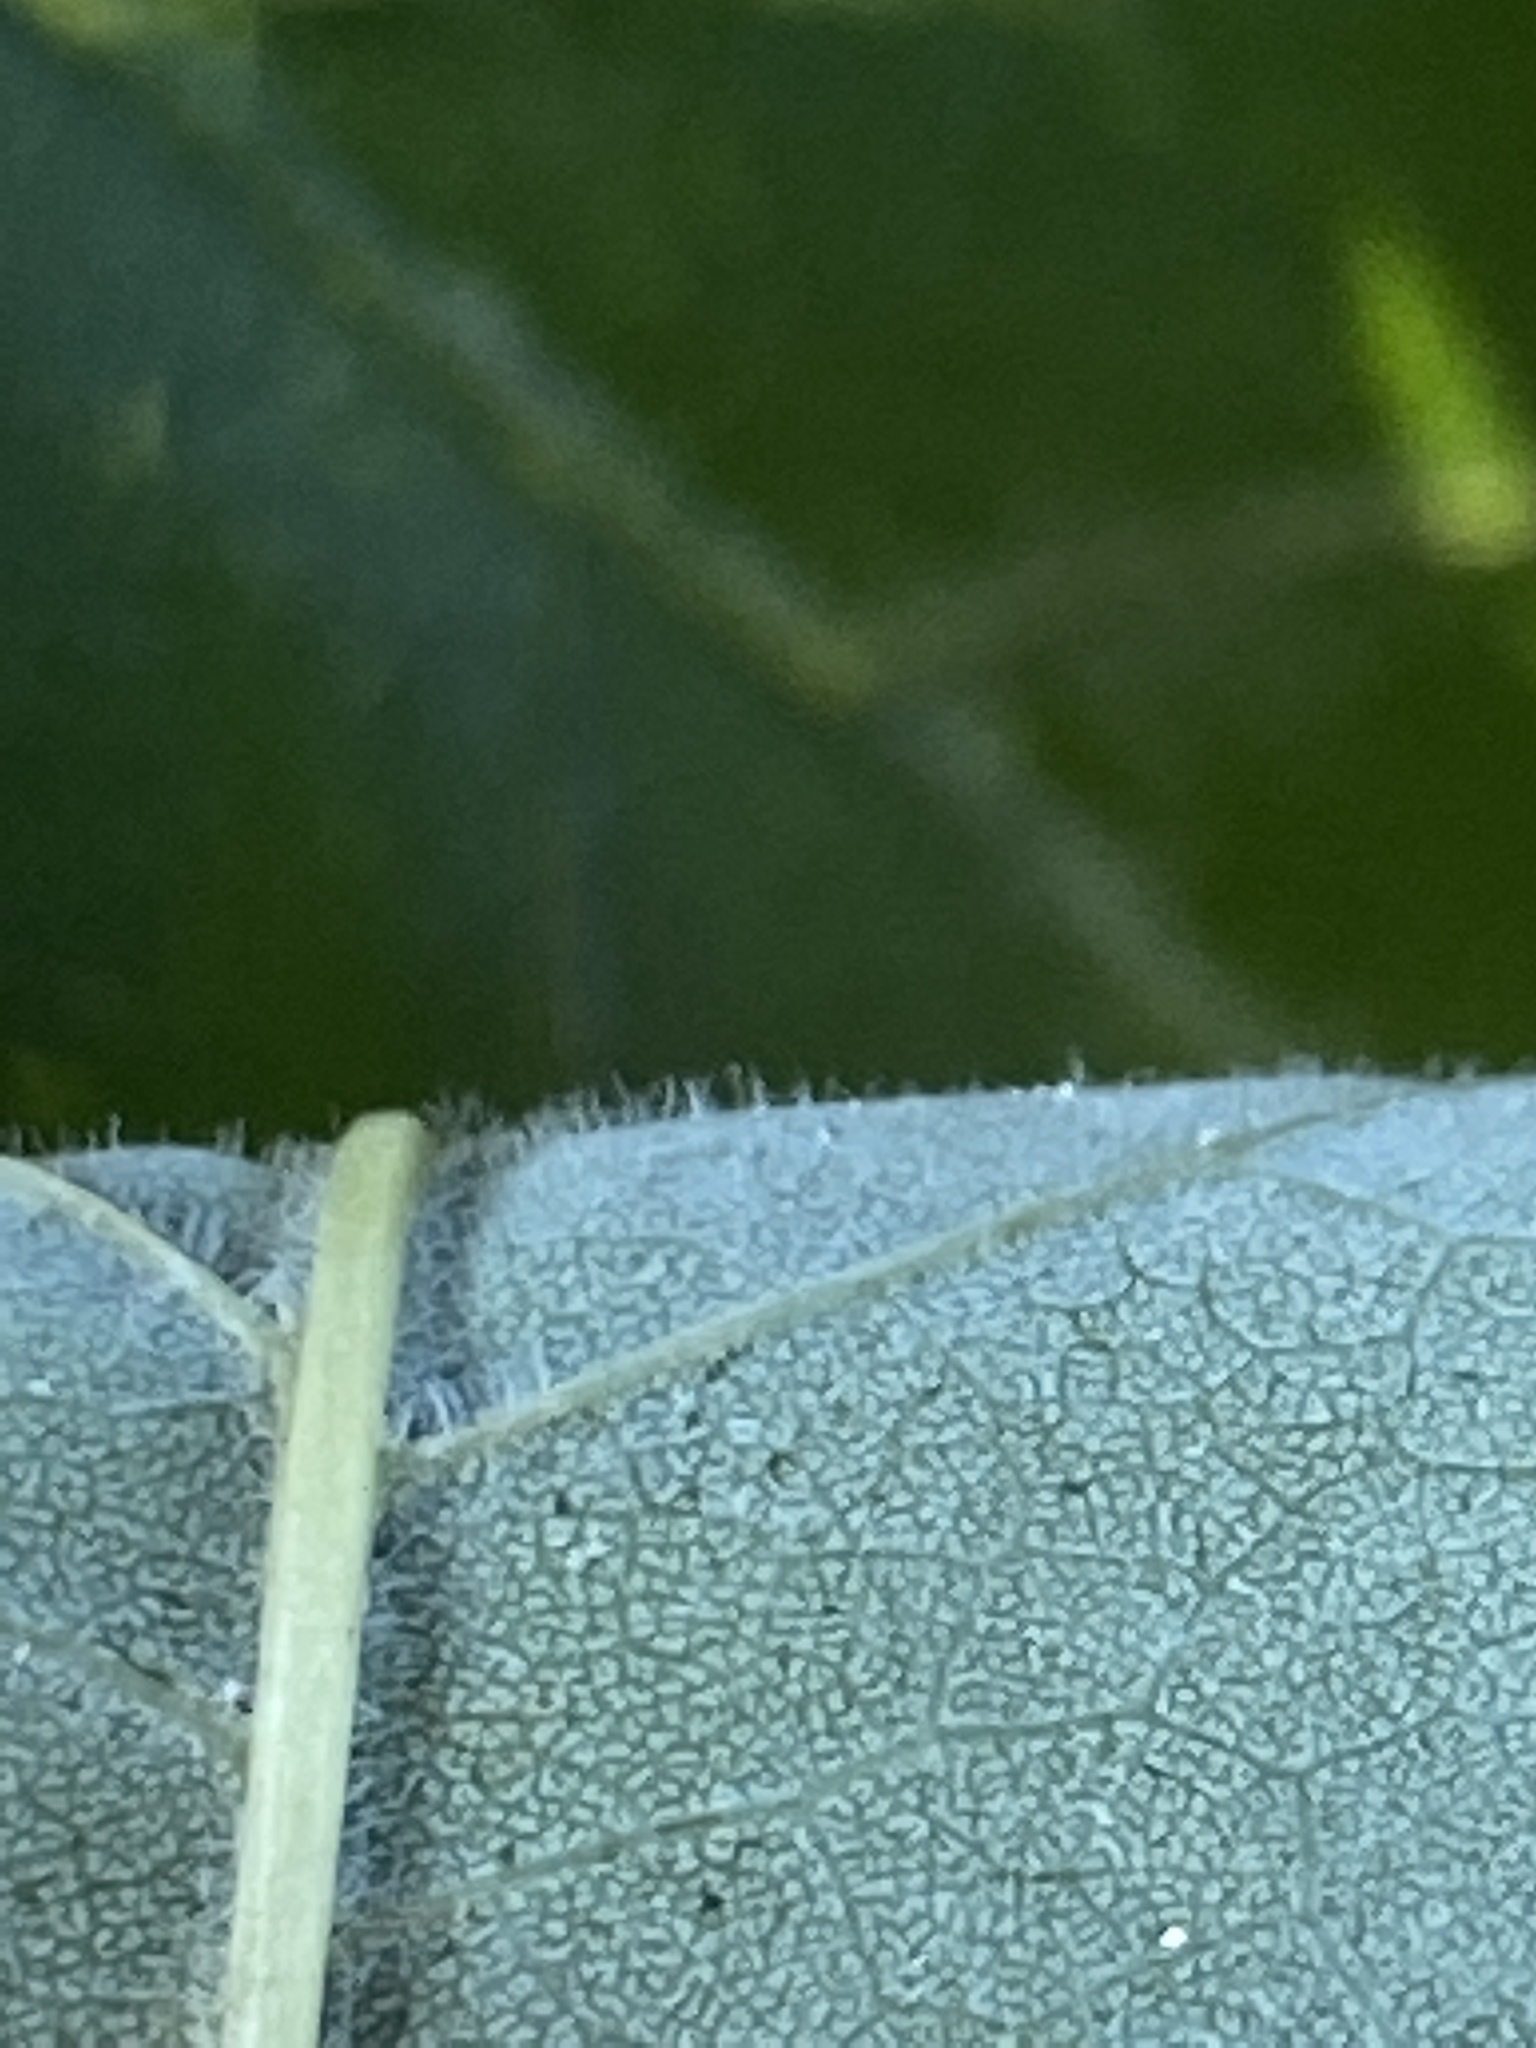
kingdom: Plantae
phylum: Tracheophyta
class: Magnoliopsida
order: Lamiales
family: Oleaceae
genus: Fraxinus
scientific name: Fraxinus americana
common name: White ash
